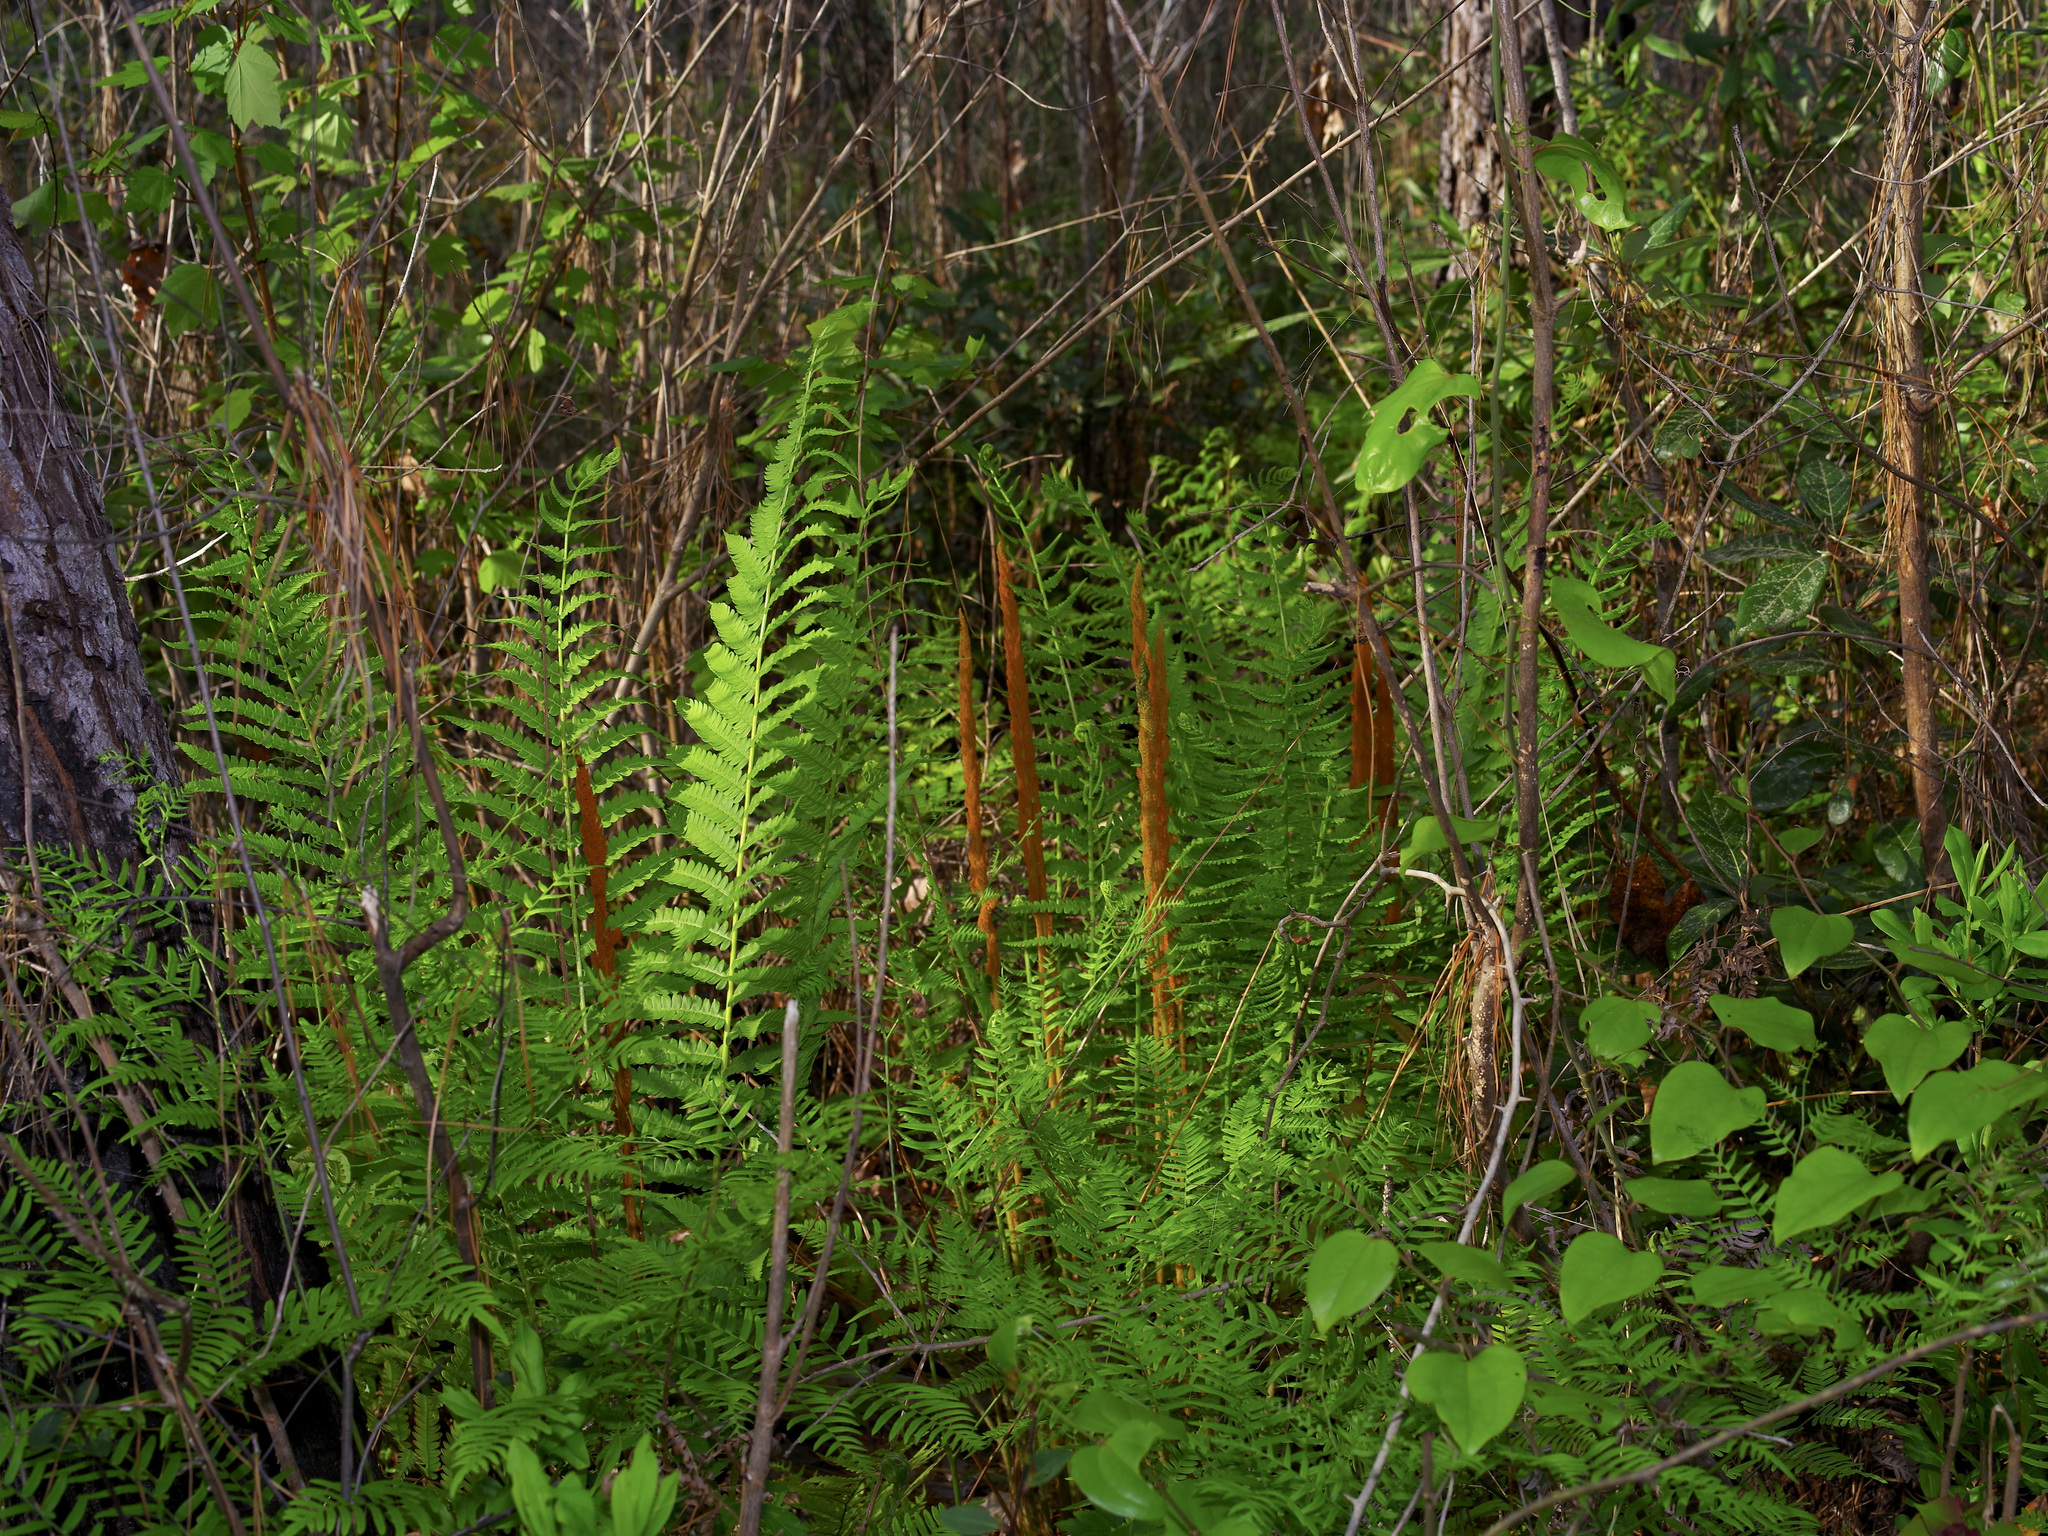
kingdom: Plantae
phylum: Tracheophyta
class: Polypodiopsida
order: Osmundales
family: Osmundaceae
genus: Osmundastrum
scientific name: Osmundastrum cinnamomeum
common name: Cinnamon fern
